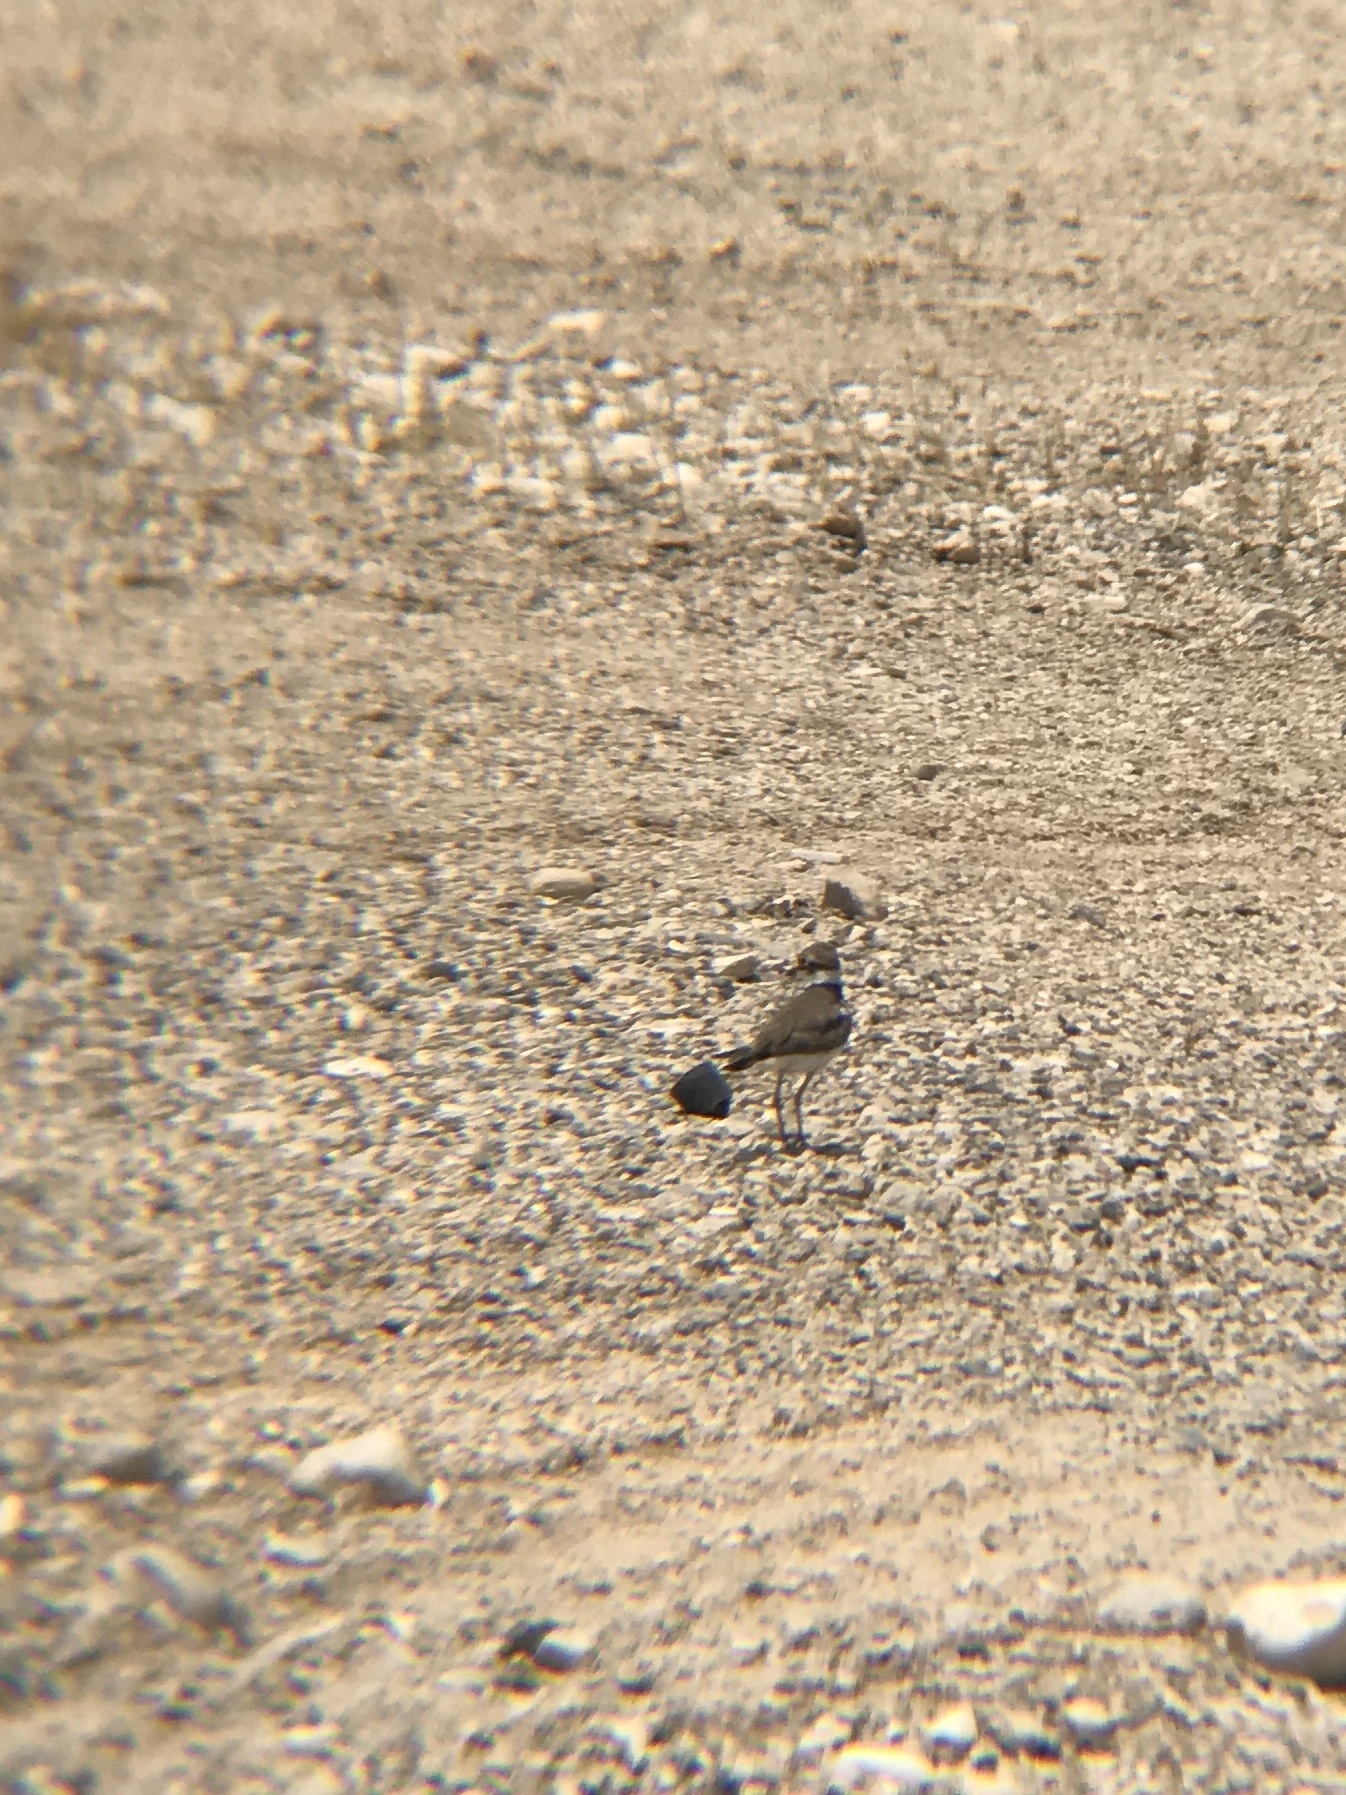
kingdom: Animalia
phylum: Chordata
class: Aves
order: Charadriiformes
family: Charadriidae
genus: Charadrius
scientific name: Charadrius dubius
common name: Little ringed plover
